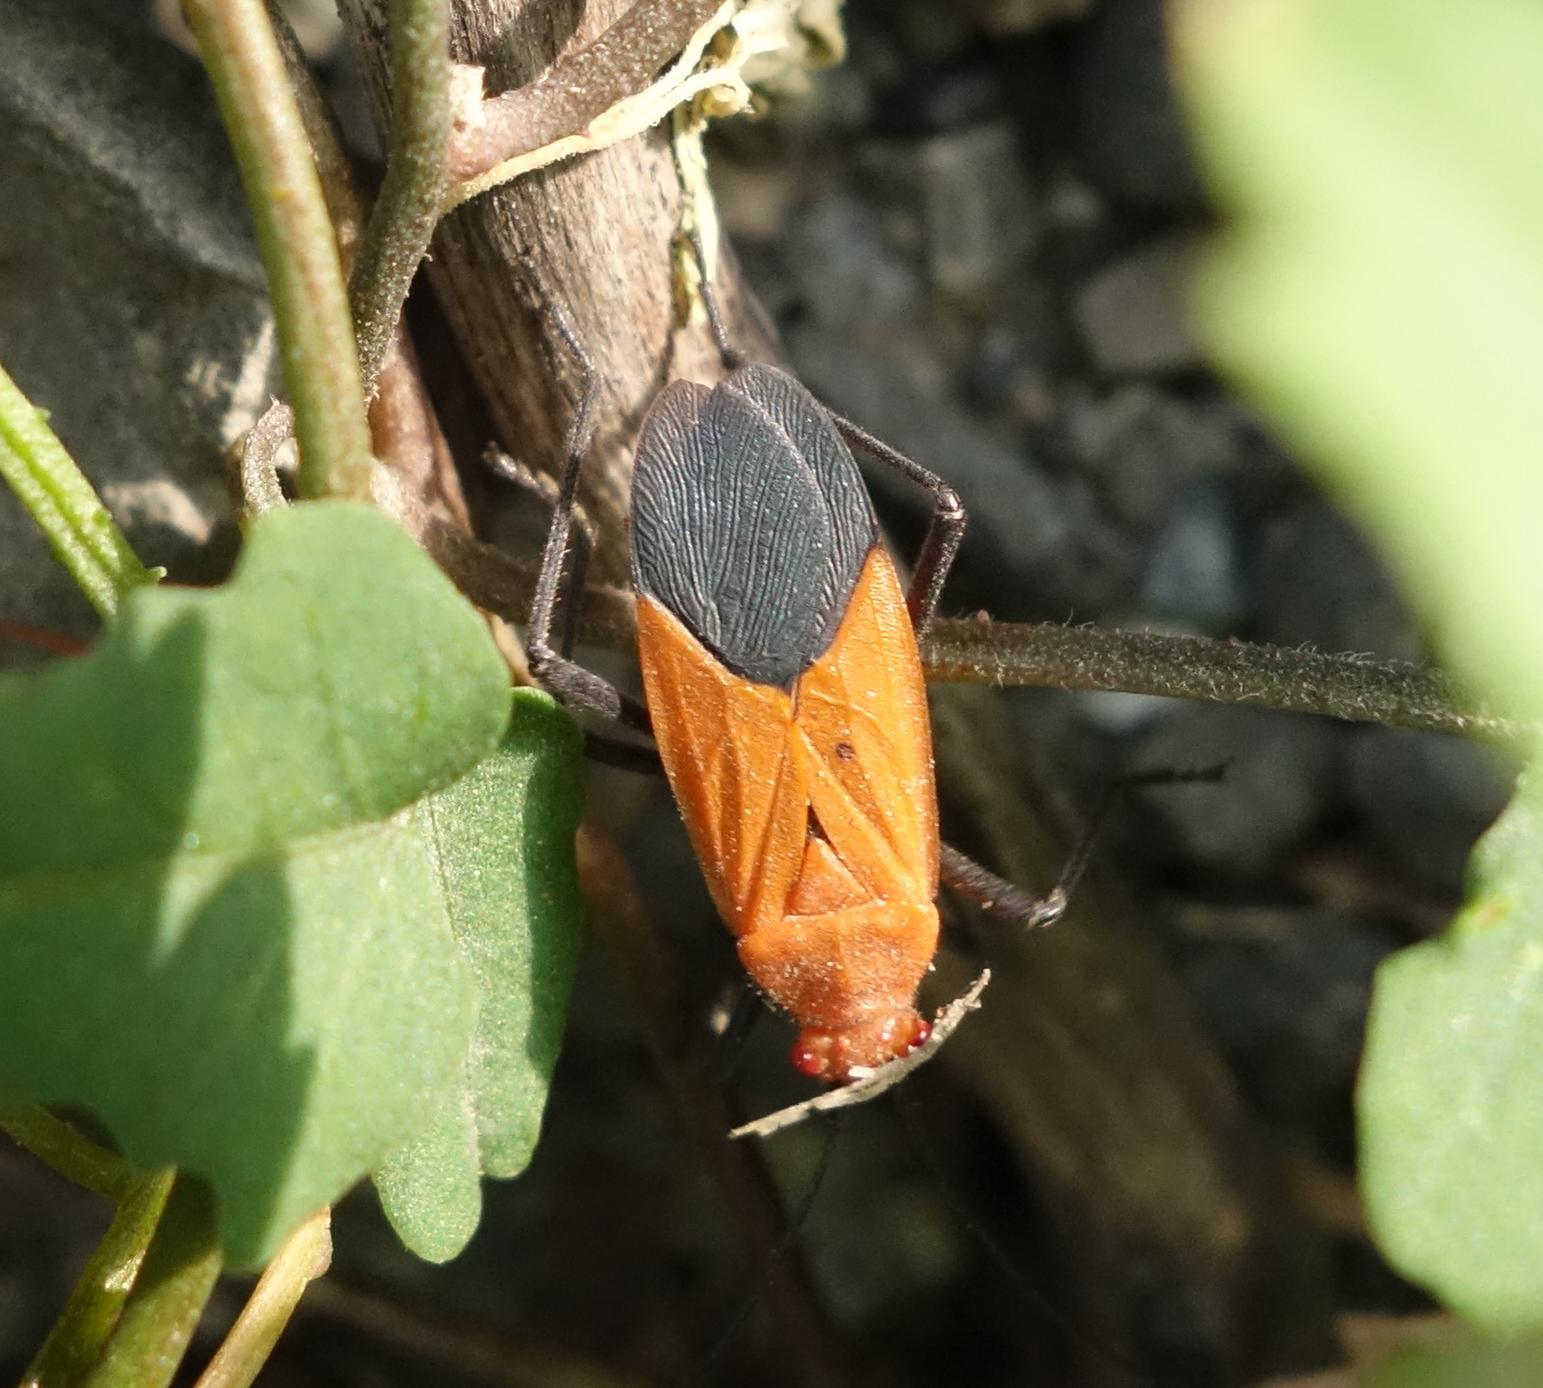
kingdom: Animalia
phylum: Arthropoda
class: Insecta
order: Hemiptera
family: Rhopalidae
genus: Leptocoris
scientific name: Leptocoris augur
